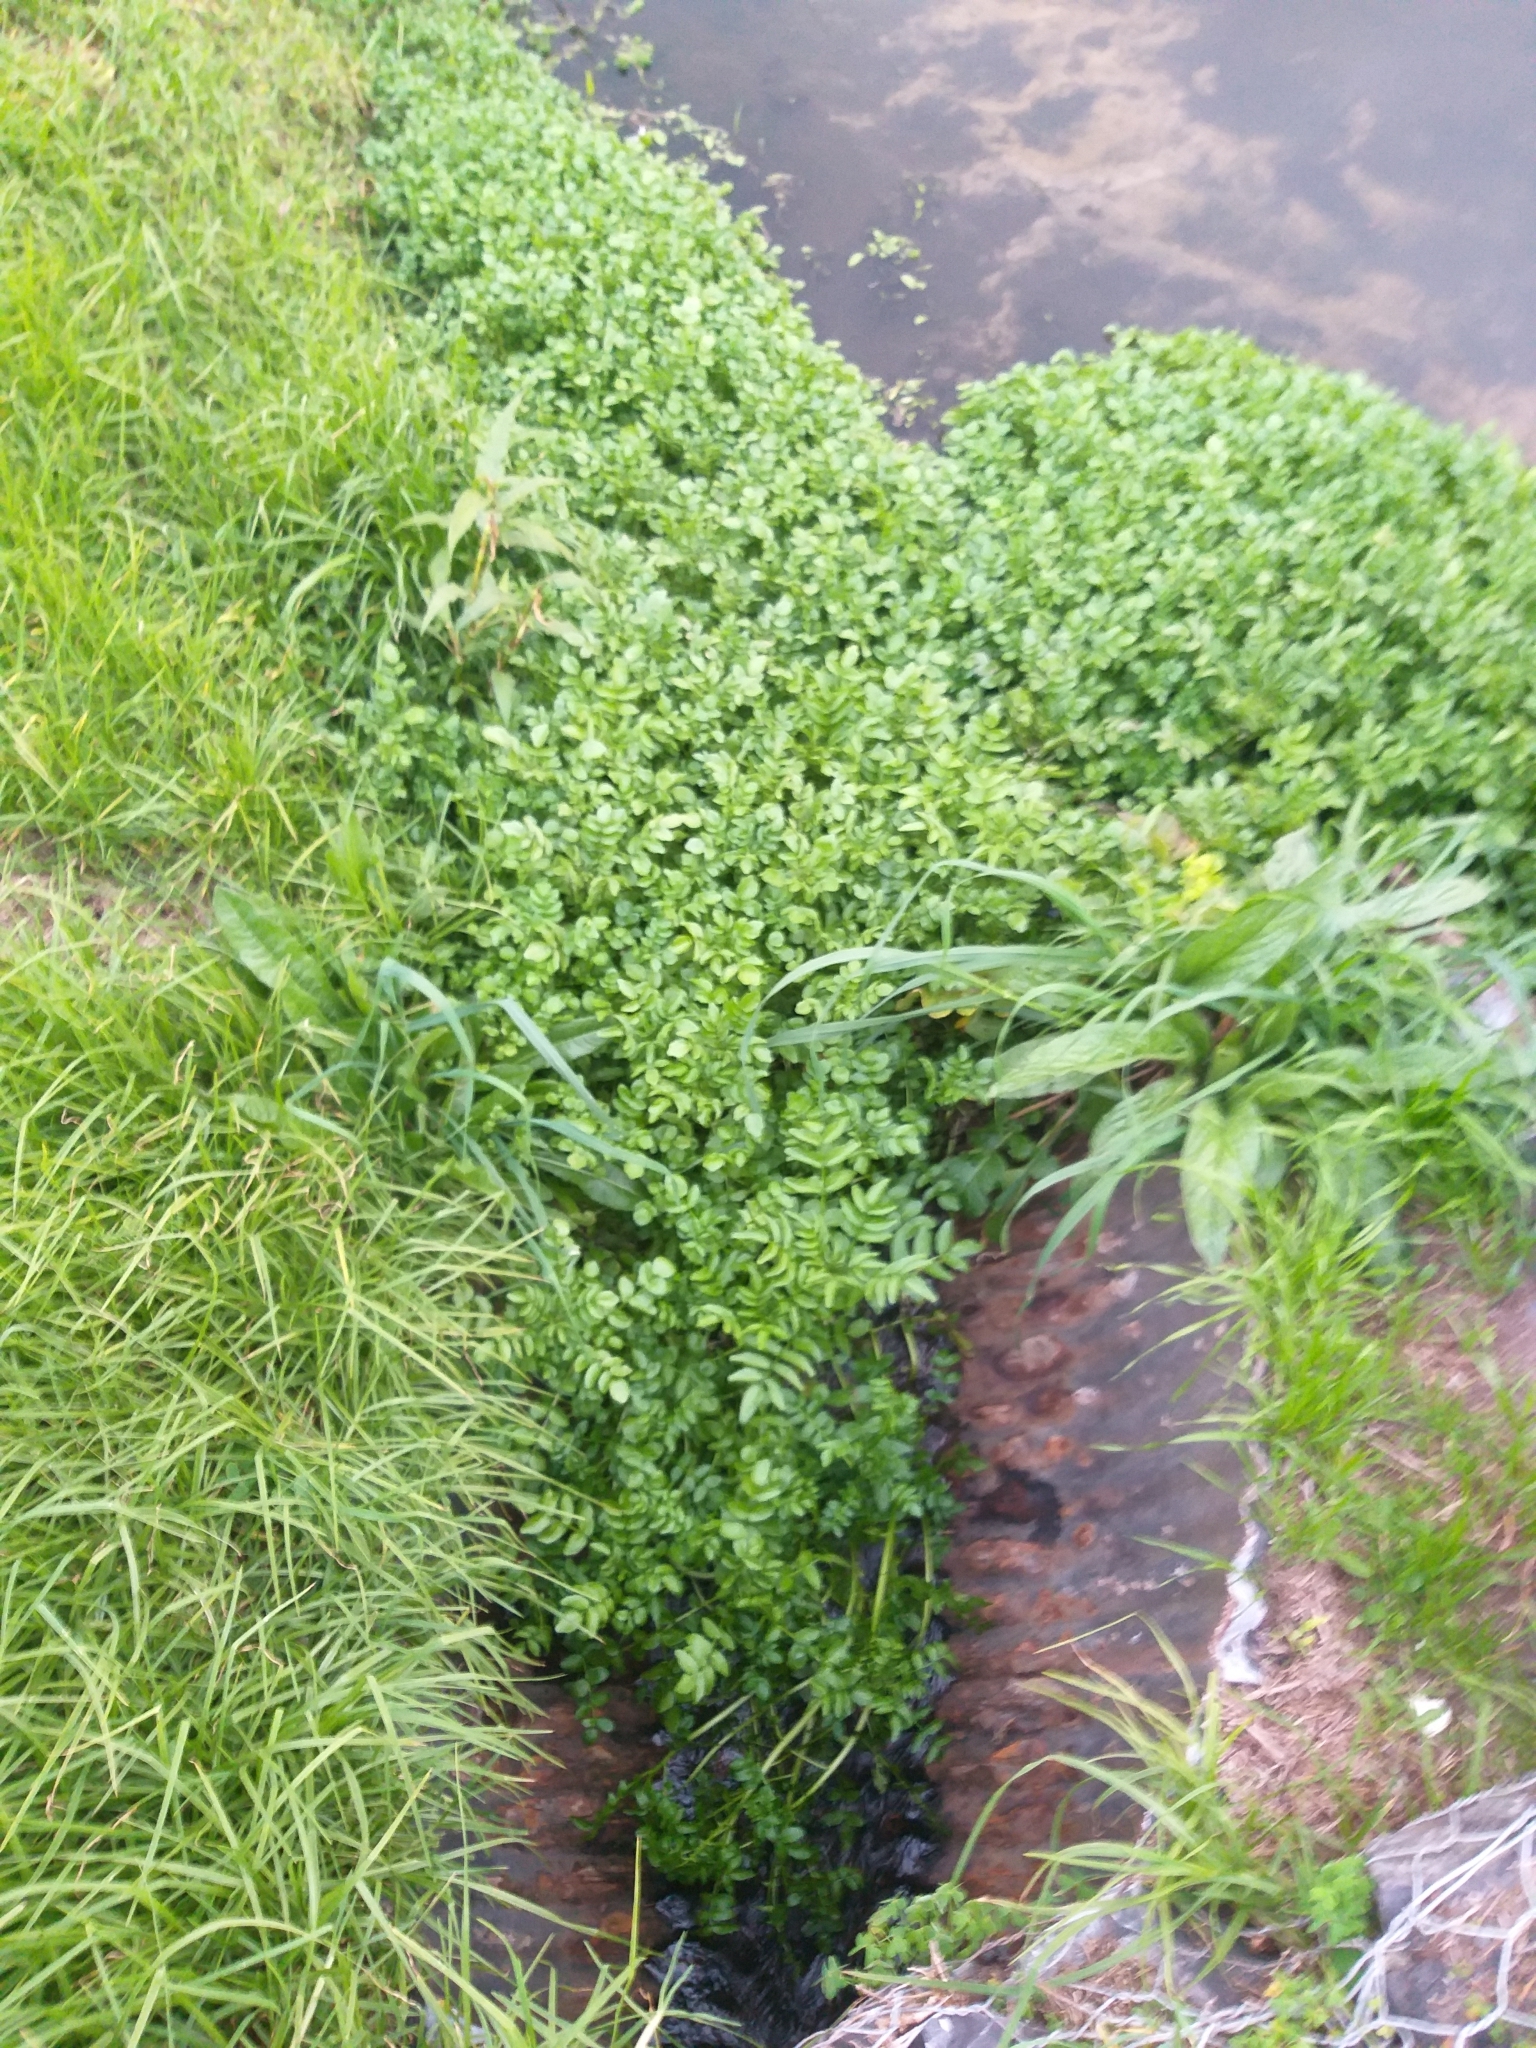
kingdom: Plantae
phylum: Tracheophyta
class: Magnoliopsida
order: Brassicales
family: Brassicaceae
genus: Nasturtium
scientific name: Nasturtium officinale
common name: Watercress
